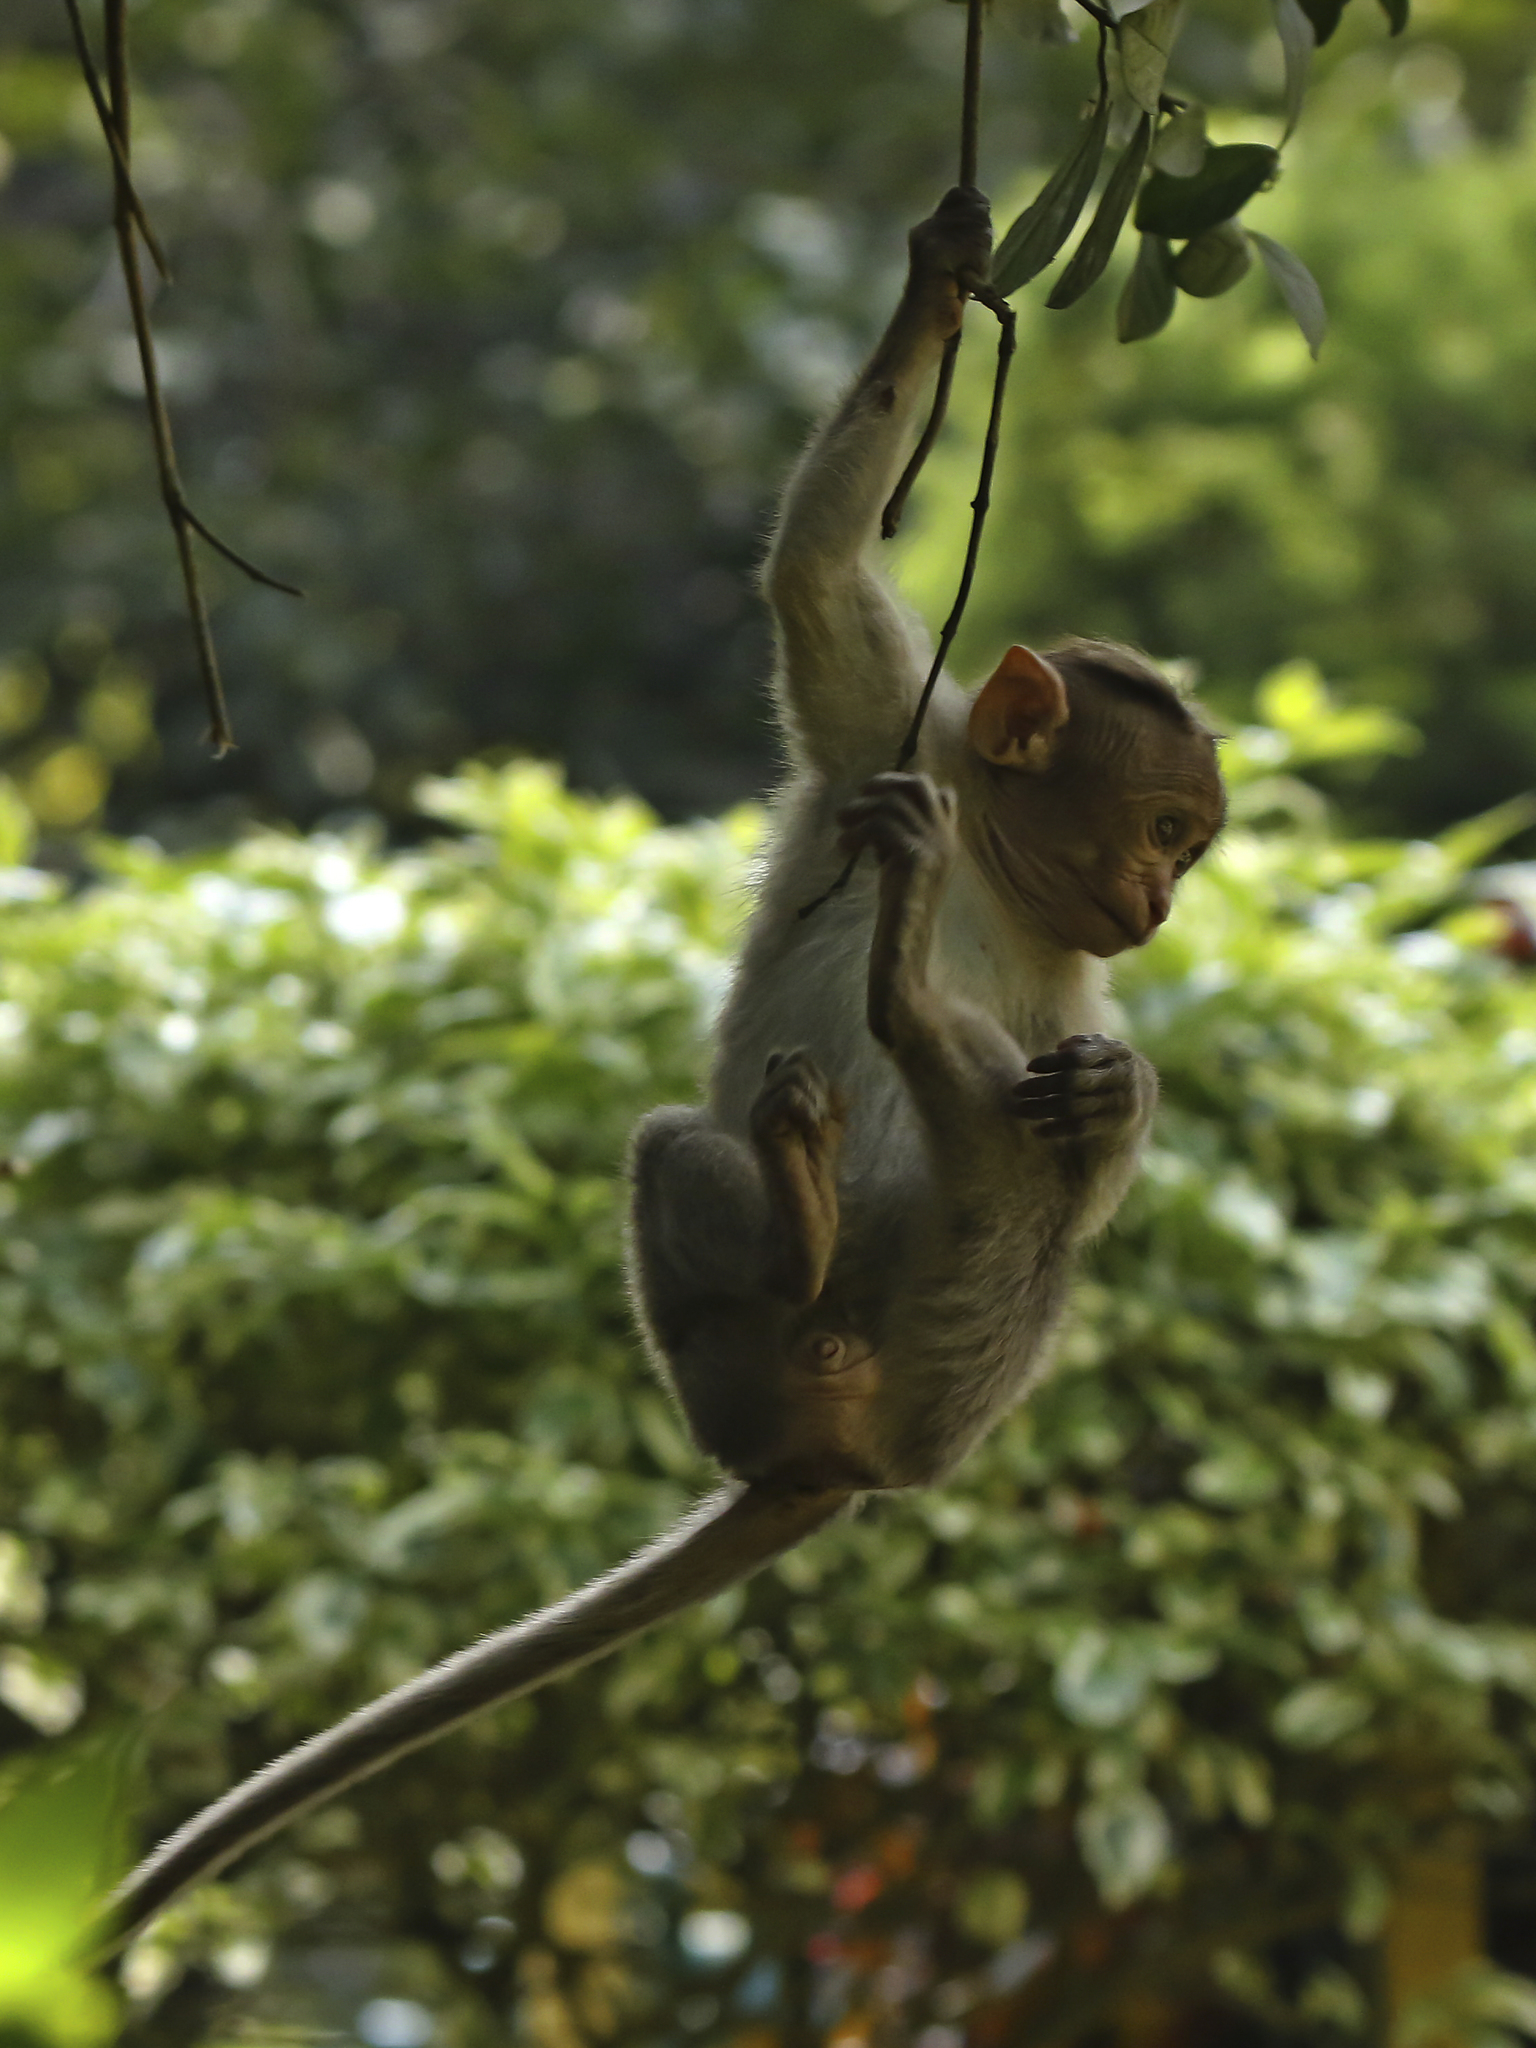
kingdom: Animalia
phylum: Chordata
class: Mammalia
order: Primates
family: Cercopithecidae
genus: Macaca
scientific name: Macaca radiata
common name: Bonnet macaque
